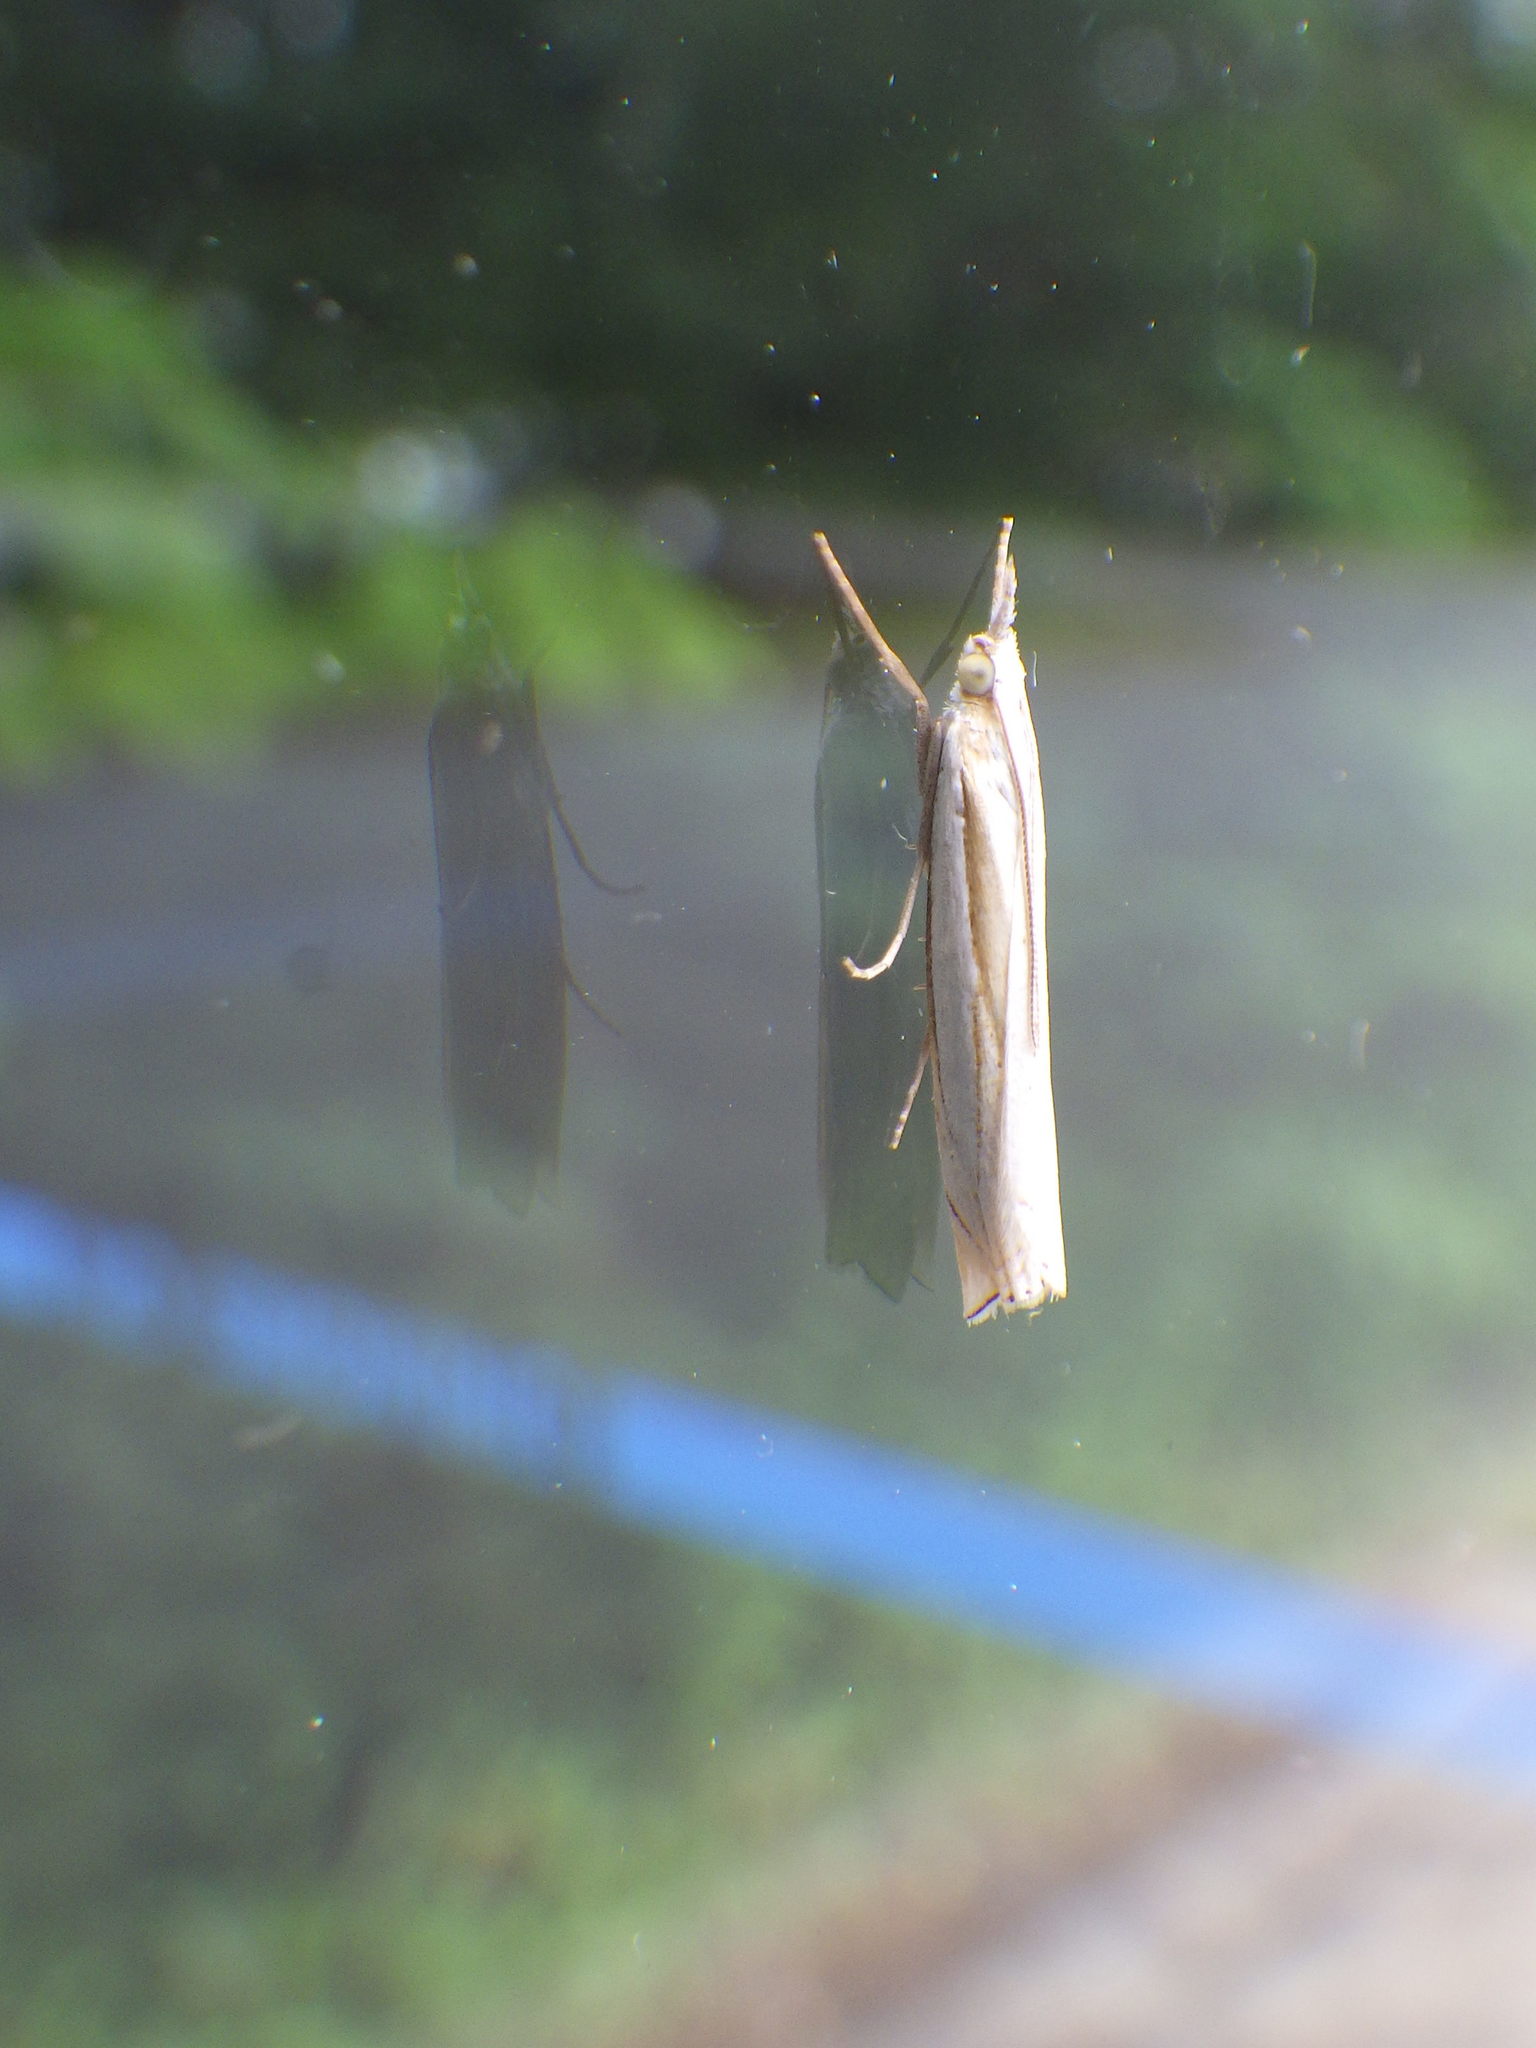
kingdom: Animalia
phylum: Arthropoda
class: Insecta
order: Lepidoptera
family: Crambidae
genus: Crambus
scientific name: Crambus pascuella
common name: Inlaid grass-veneer
